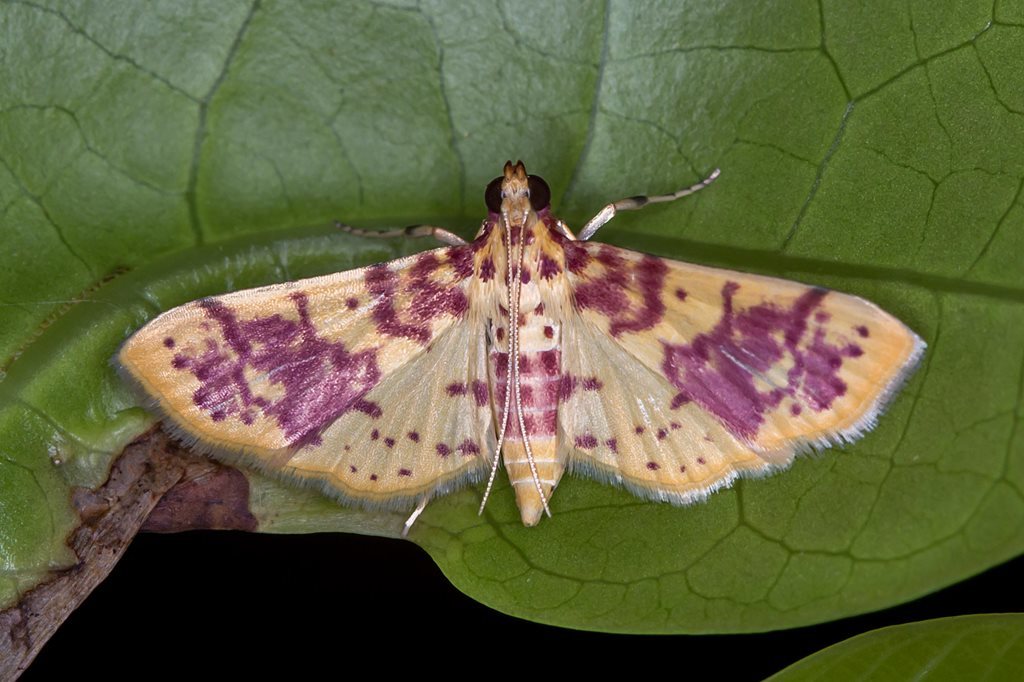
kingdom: Animalia
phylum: Arthropoda
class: Insecta
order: Lepidoptera
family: Crambidae
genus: Conogethes
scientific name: Conogethes haemactalis
